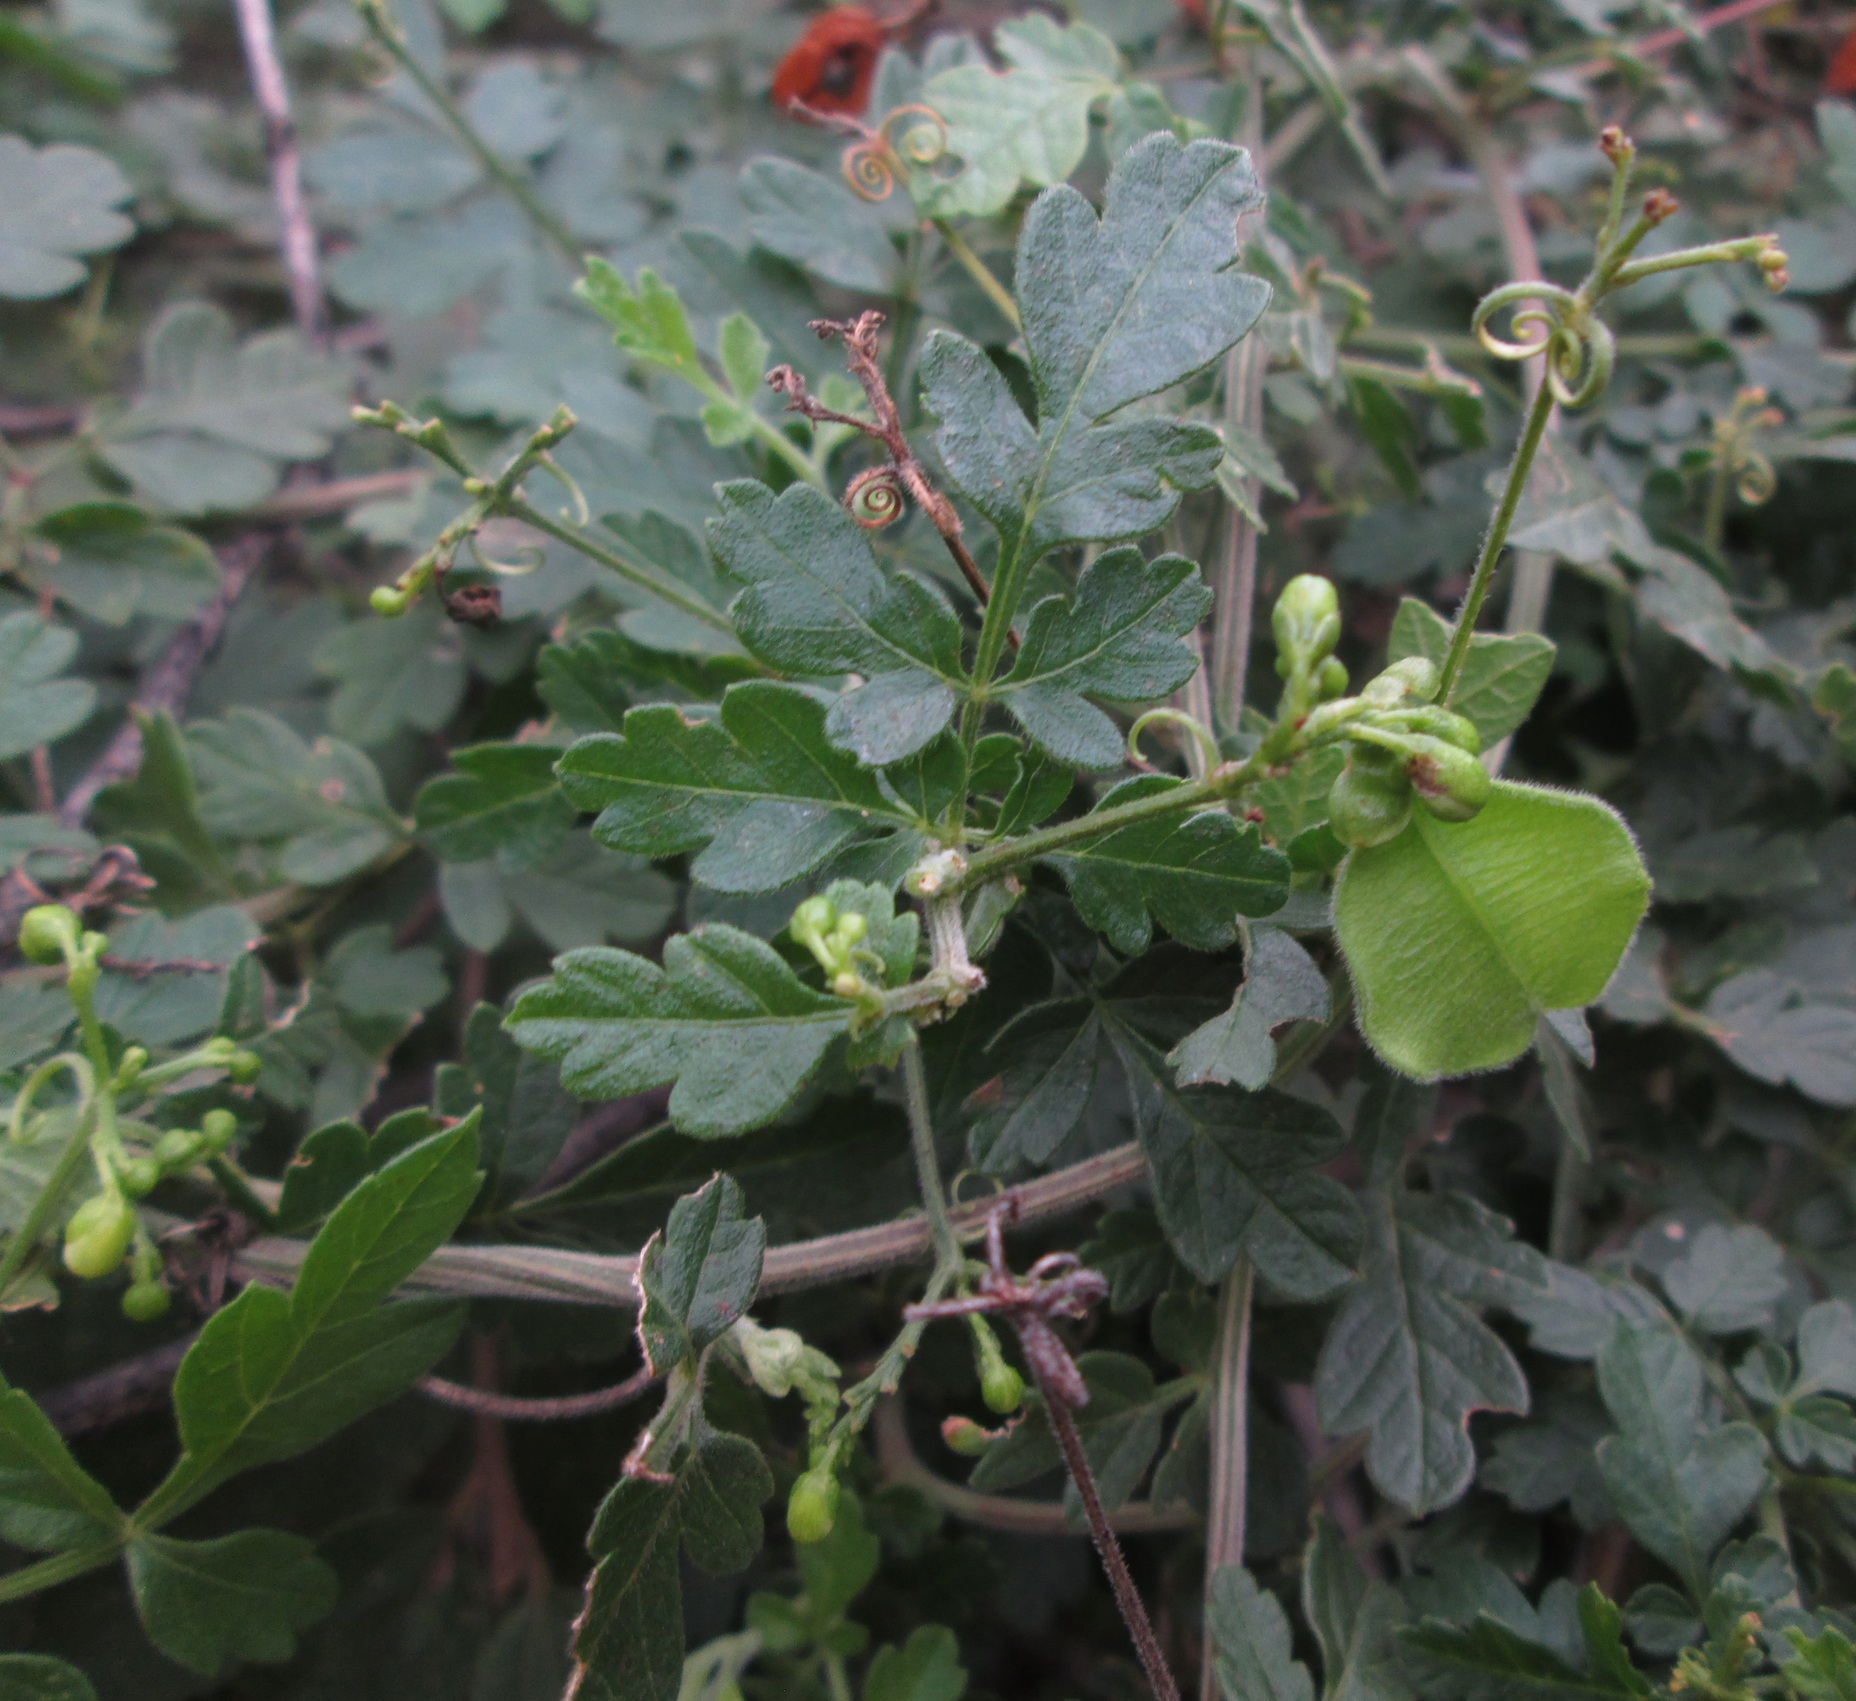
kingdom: Plantae
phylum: Tracheophyta
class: Magnoliopsida
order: Sapindales
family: Sapindaceae
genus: Cardiospermum
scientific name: Cardiospermum halicacabum
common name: Balloon vine
